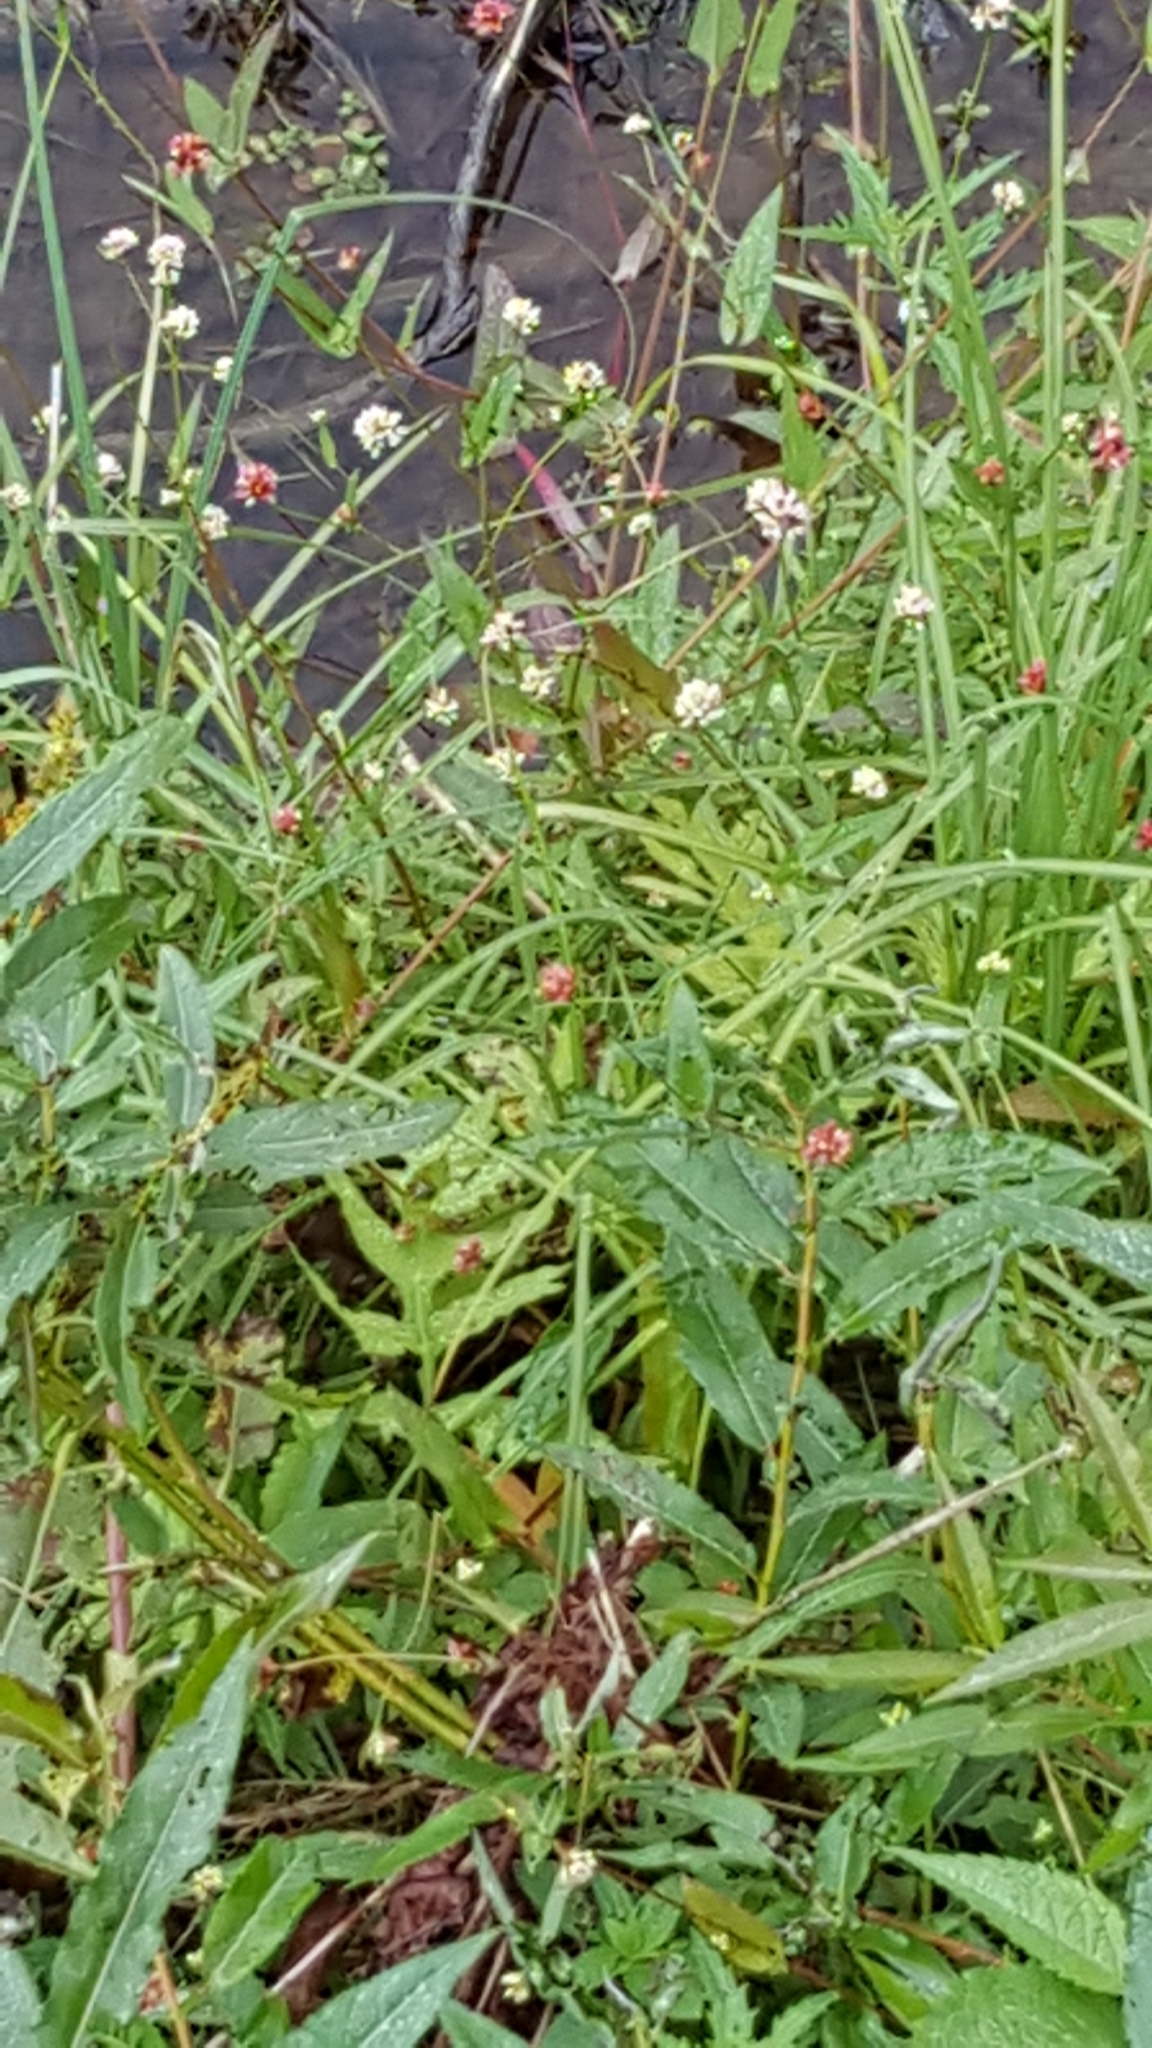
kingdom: Plantae
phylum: Tracheophyta
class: Magnoliopsida
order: Caryophyllales
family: Polygonaceae
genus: Persicaria
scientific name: Persicaria sagittata
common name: American tearthumb
